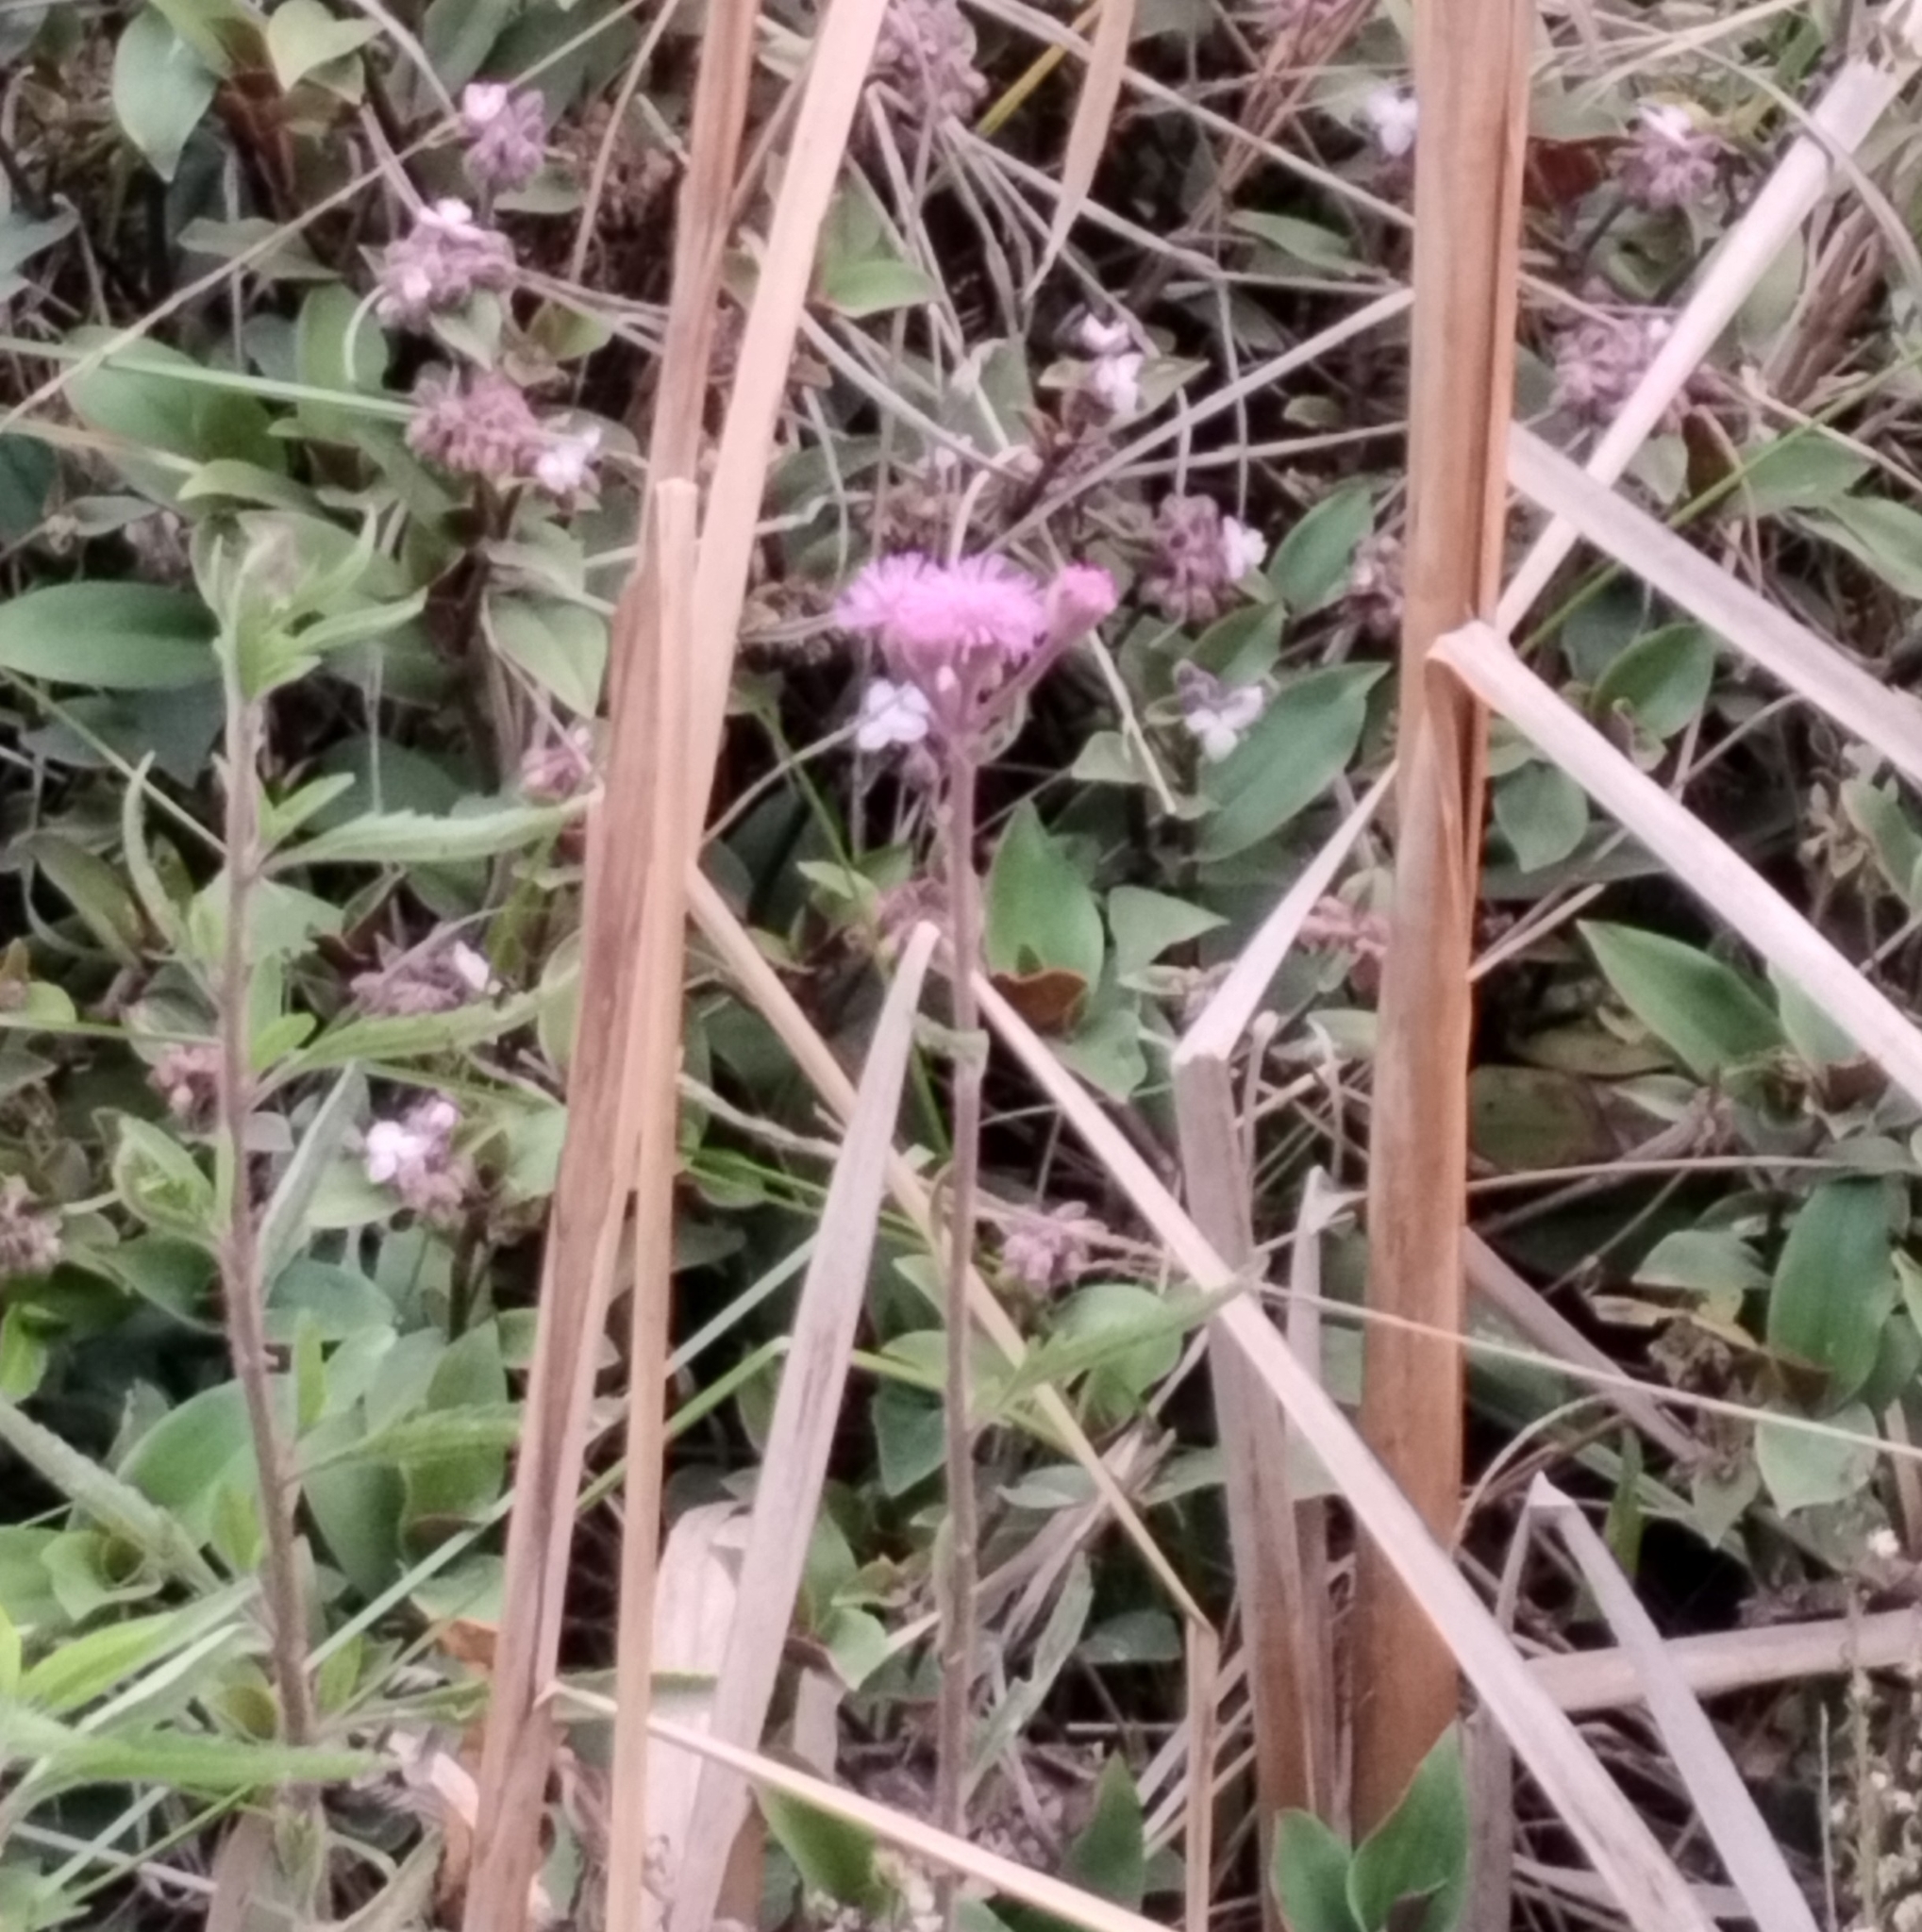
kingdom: Plantae
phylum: Tracheophyta
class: Magnoliopsida
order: Asterales
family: Asteraceae
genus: Campuloclinium
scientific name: Campuloclinium macrocephalum
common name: Pompomweed
